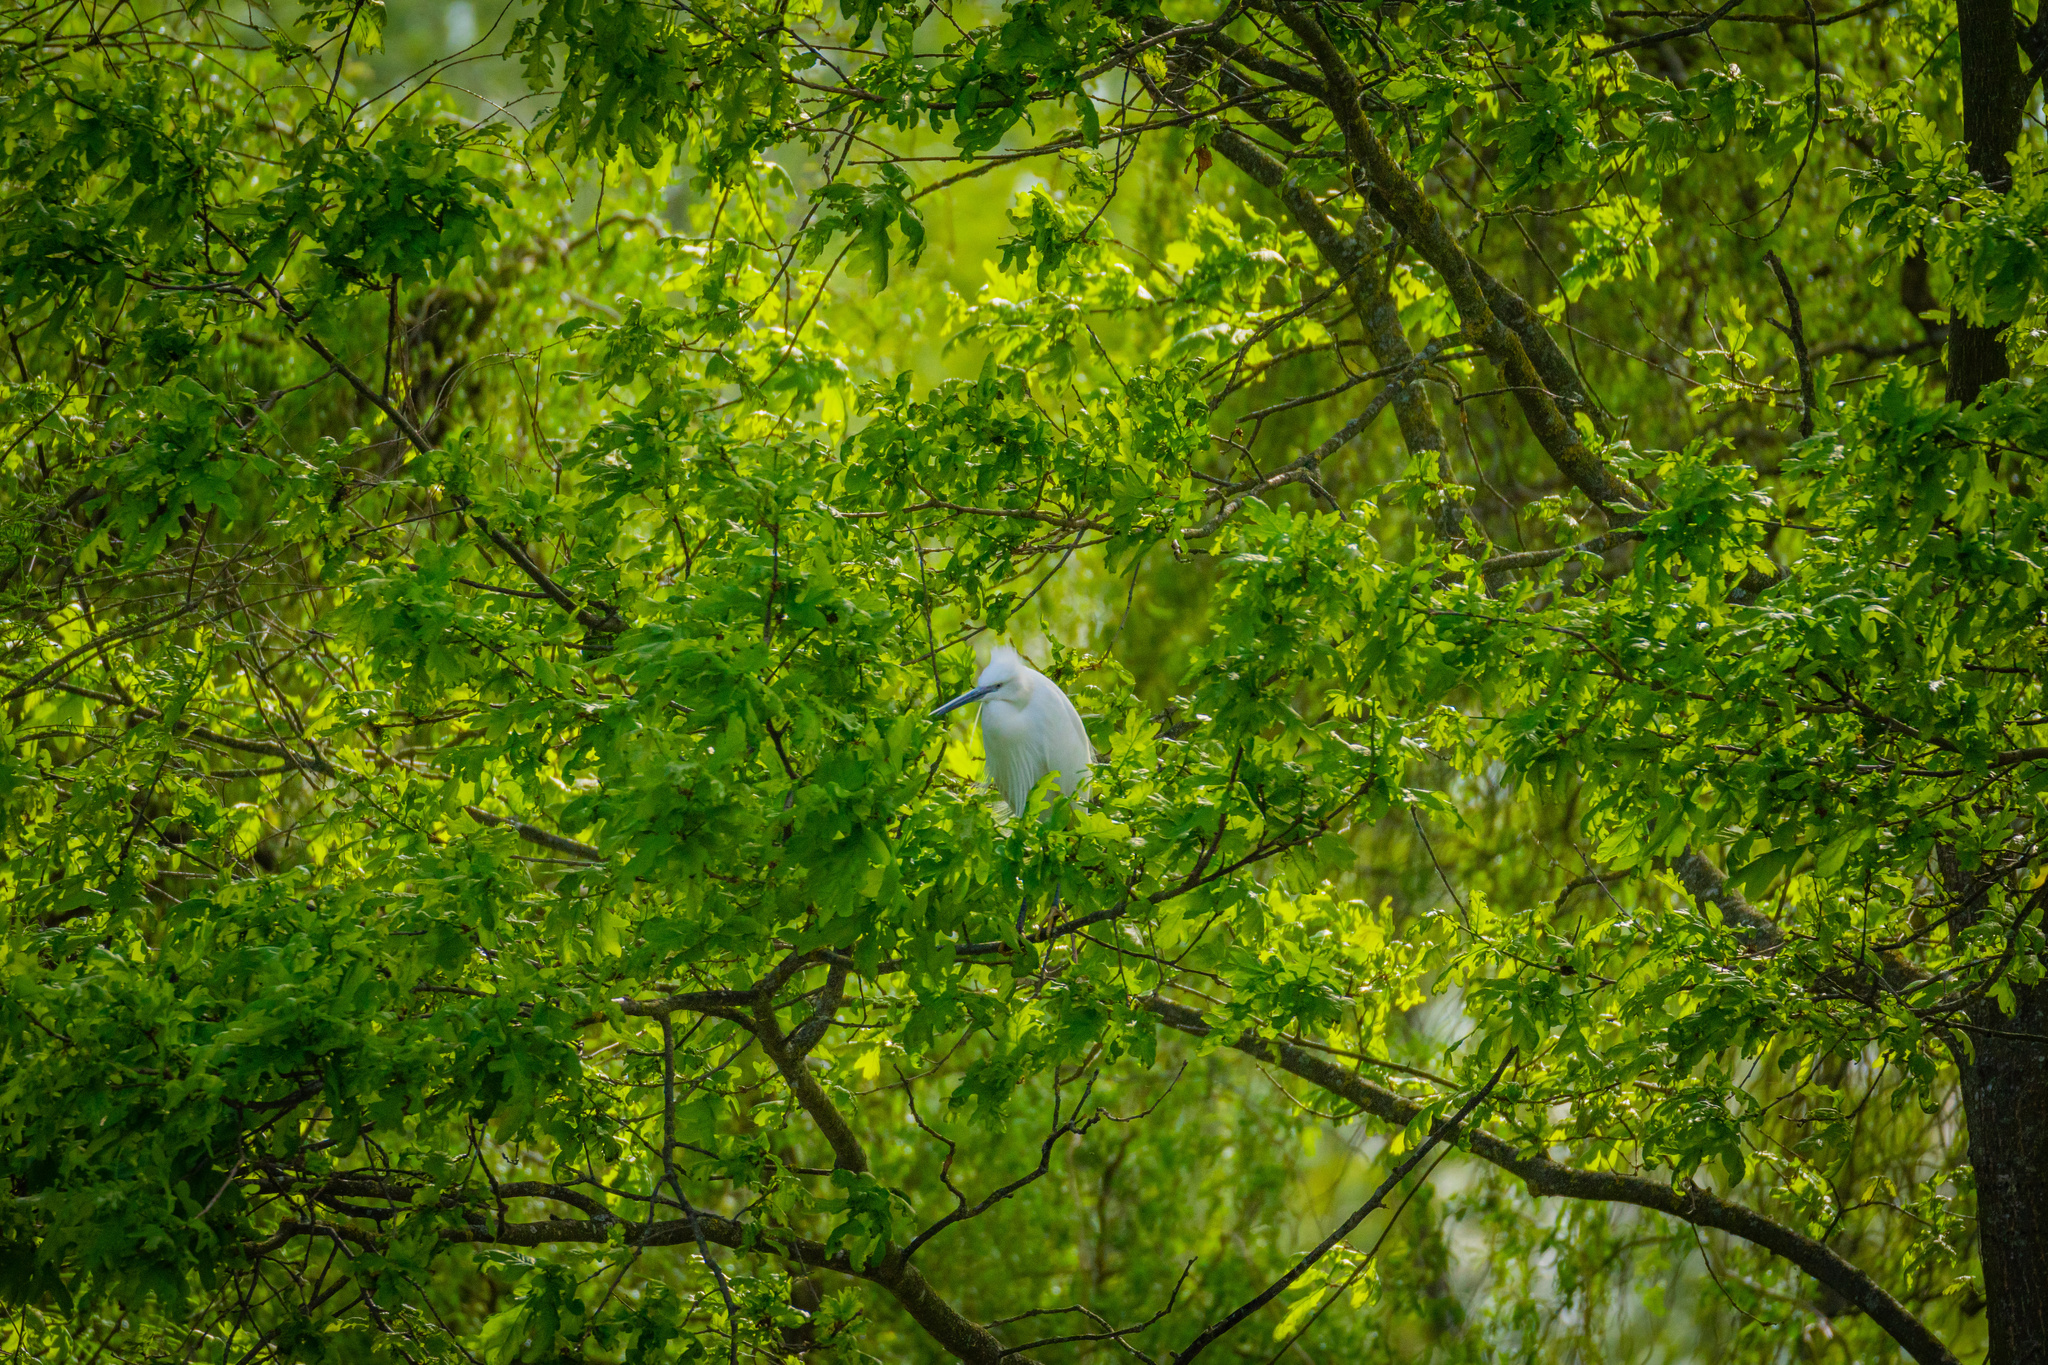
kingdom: Animalia
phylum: Chordata
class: Aves
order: Pelecaniformes
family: Ardeidae
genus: Egretta
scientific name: Egretta garzetta
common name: Little egret
